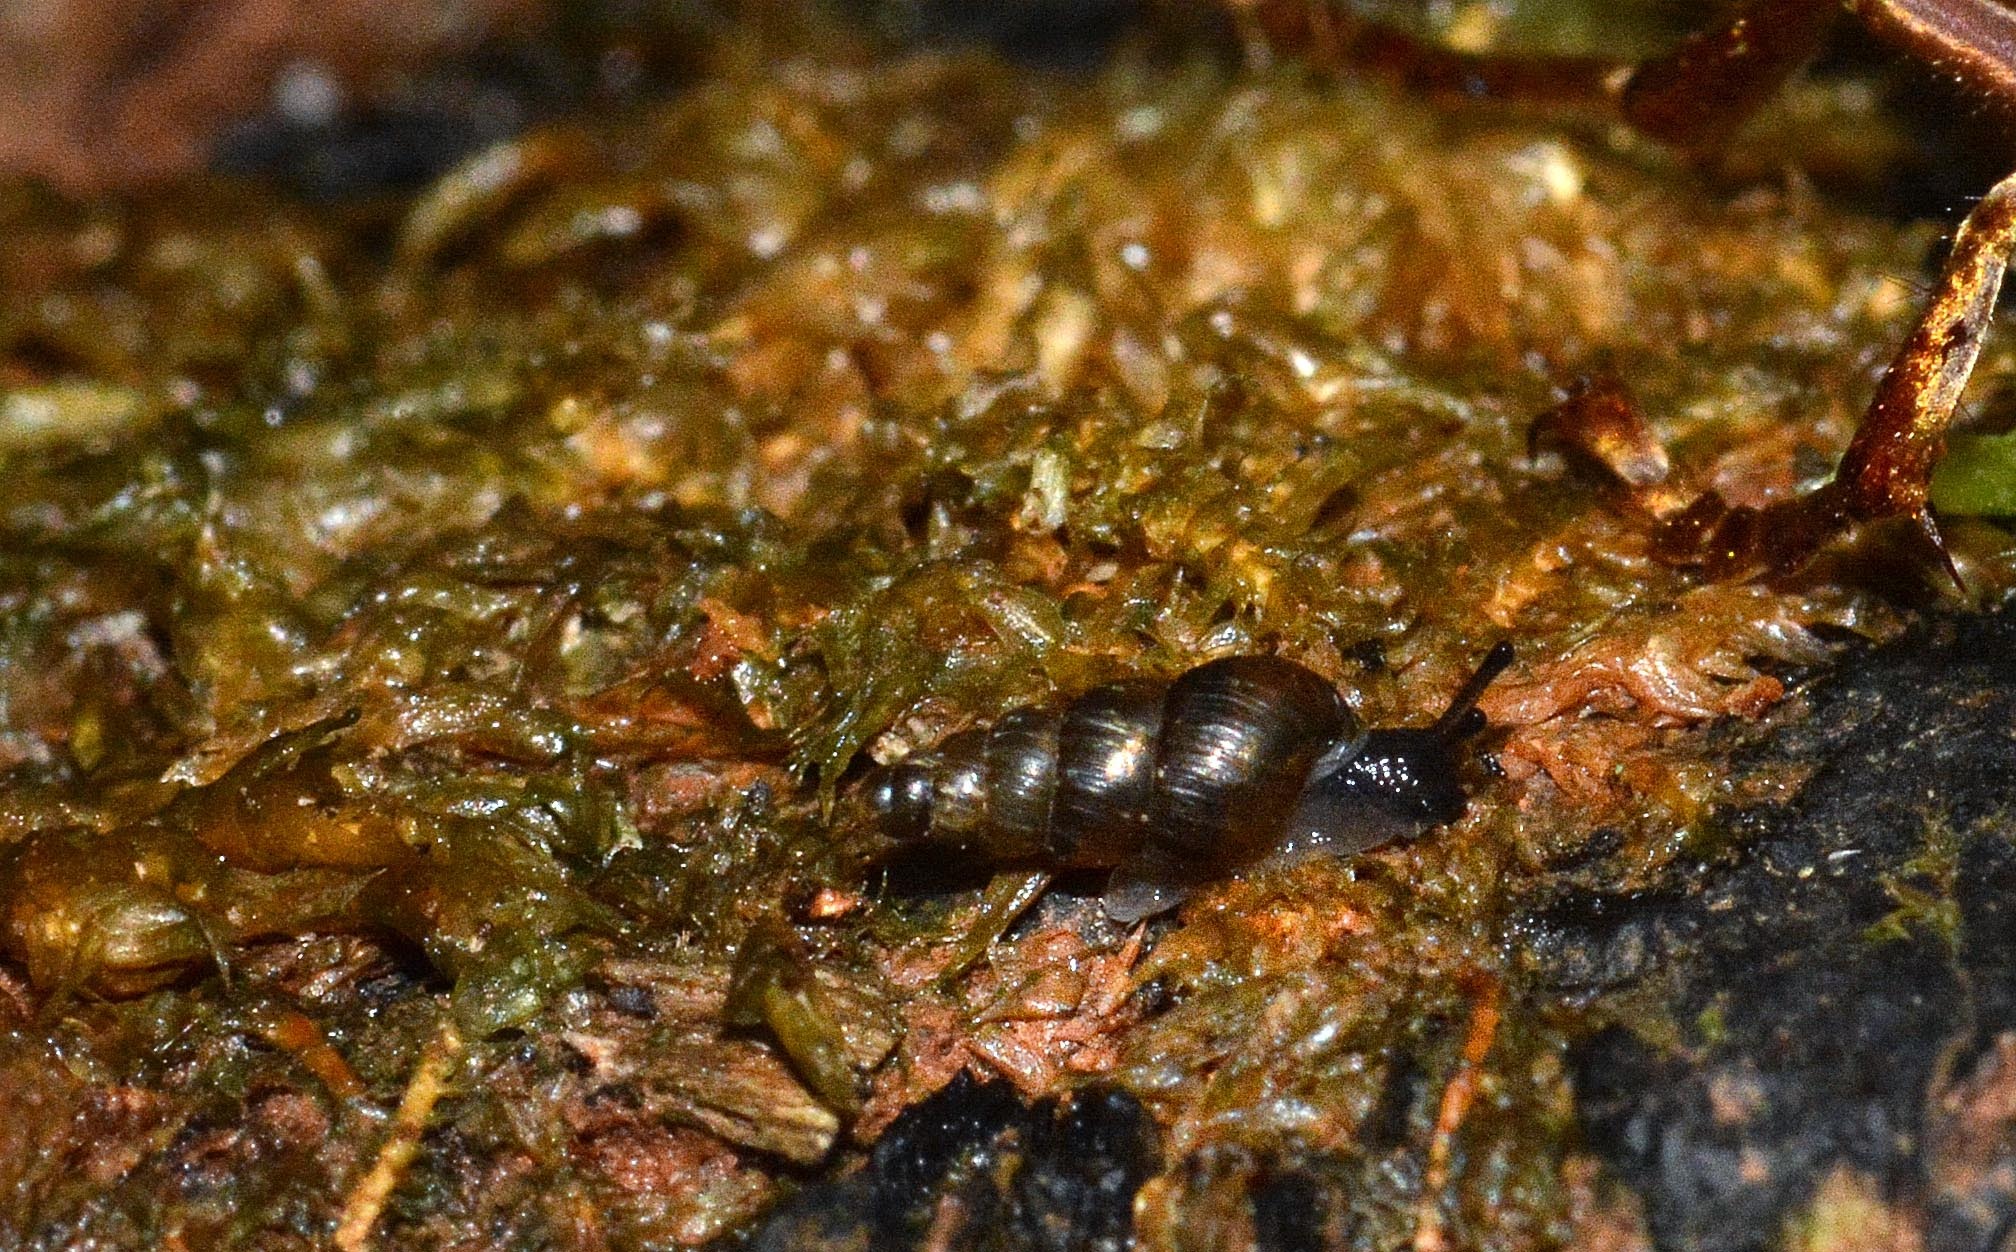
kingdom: Animalia
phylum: Mollusca
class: Gastropoda
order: Stylommatophora
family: Clausiliidae
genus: Balea
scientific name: Balea heydeni
